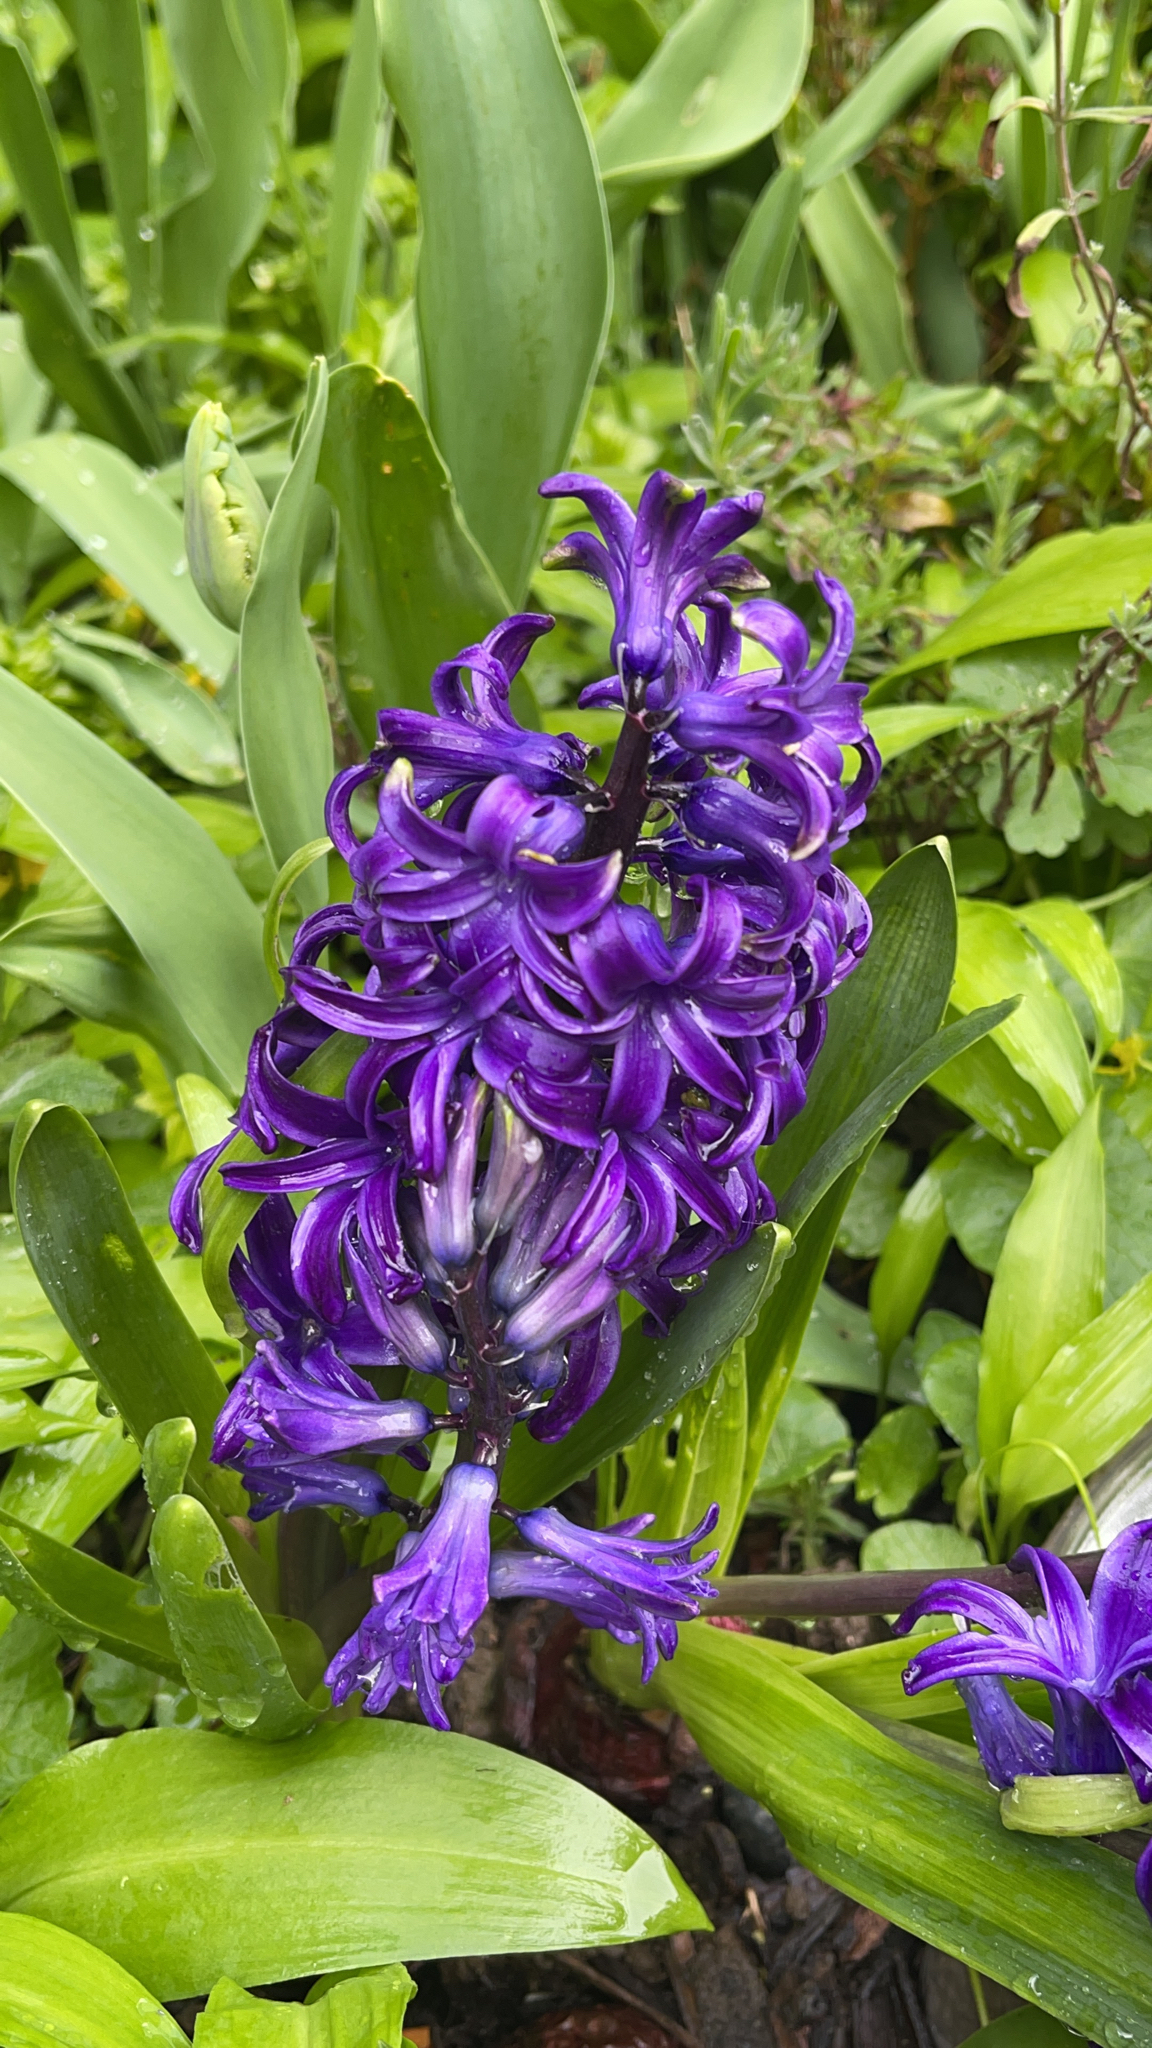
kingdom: Plantae
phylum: Tracheophyta
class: Liliopsida
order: Asparagales
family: Asparagaceae
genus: Hyacinthus
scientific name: Hyacinthus orientalis
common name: Hyacinth
